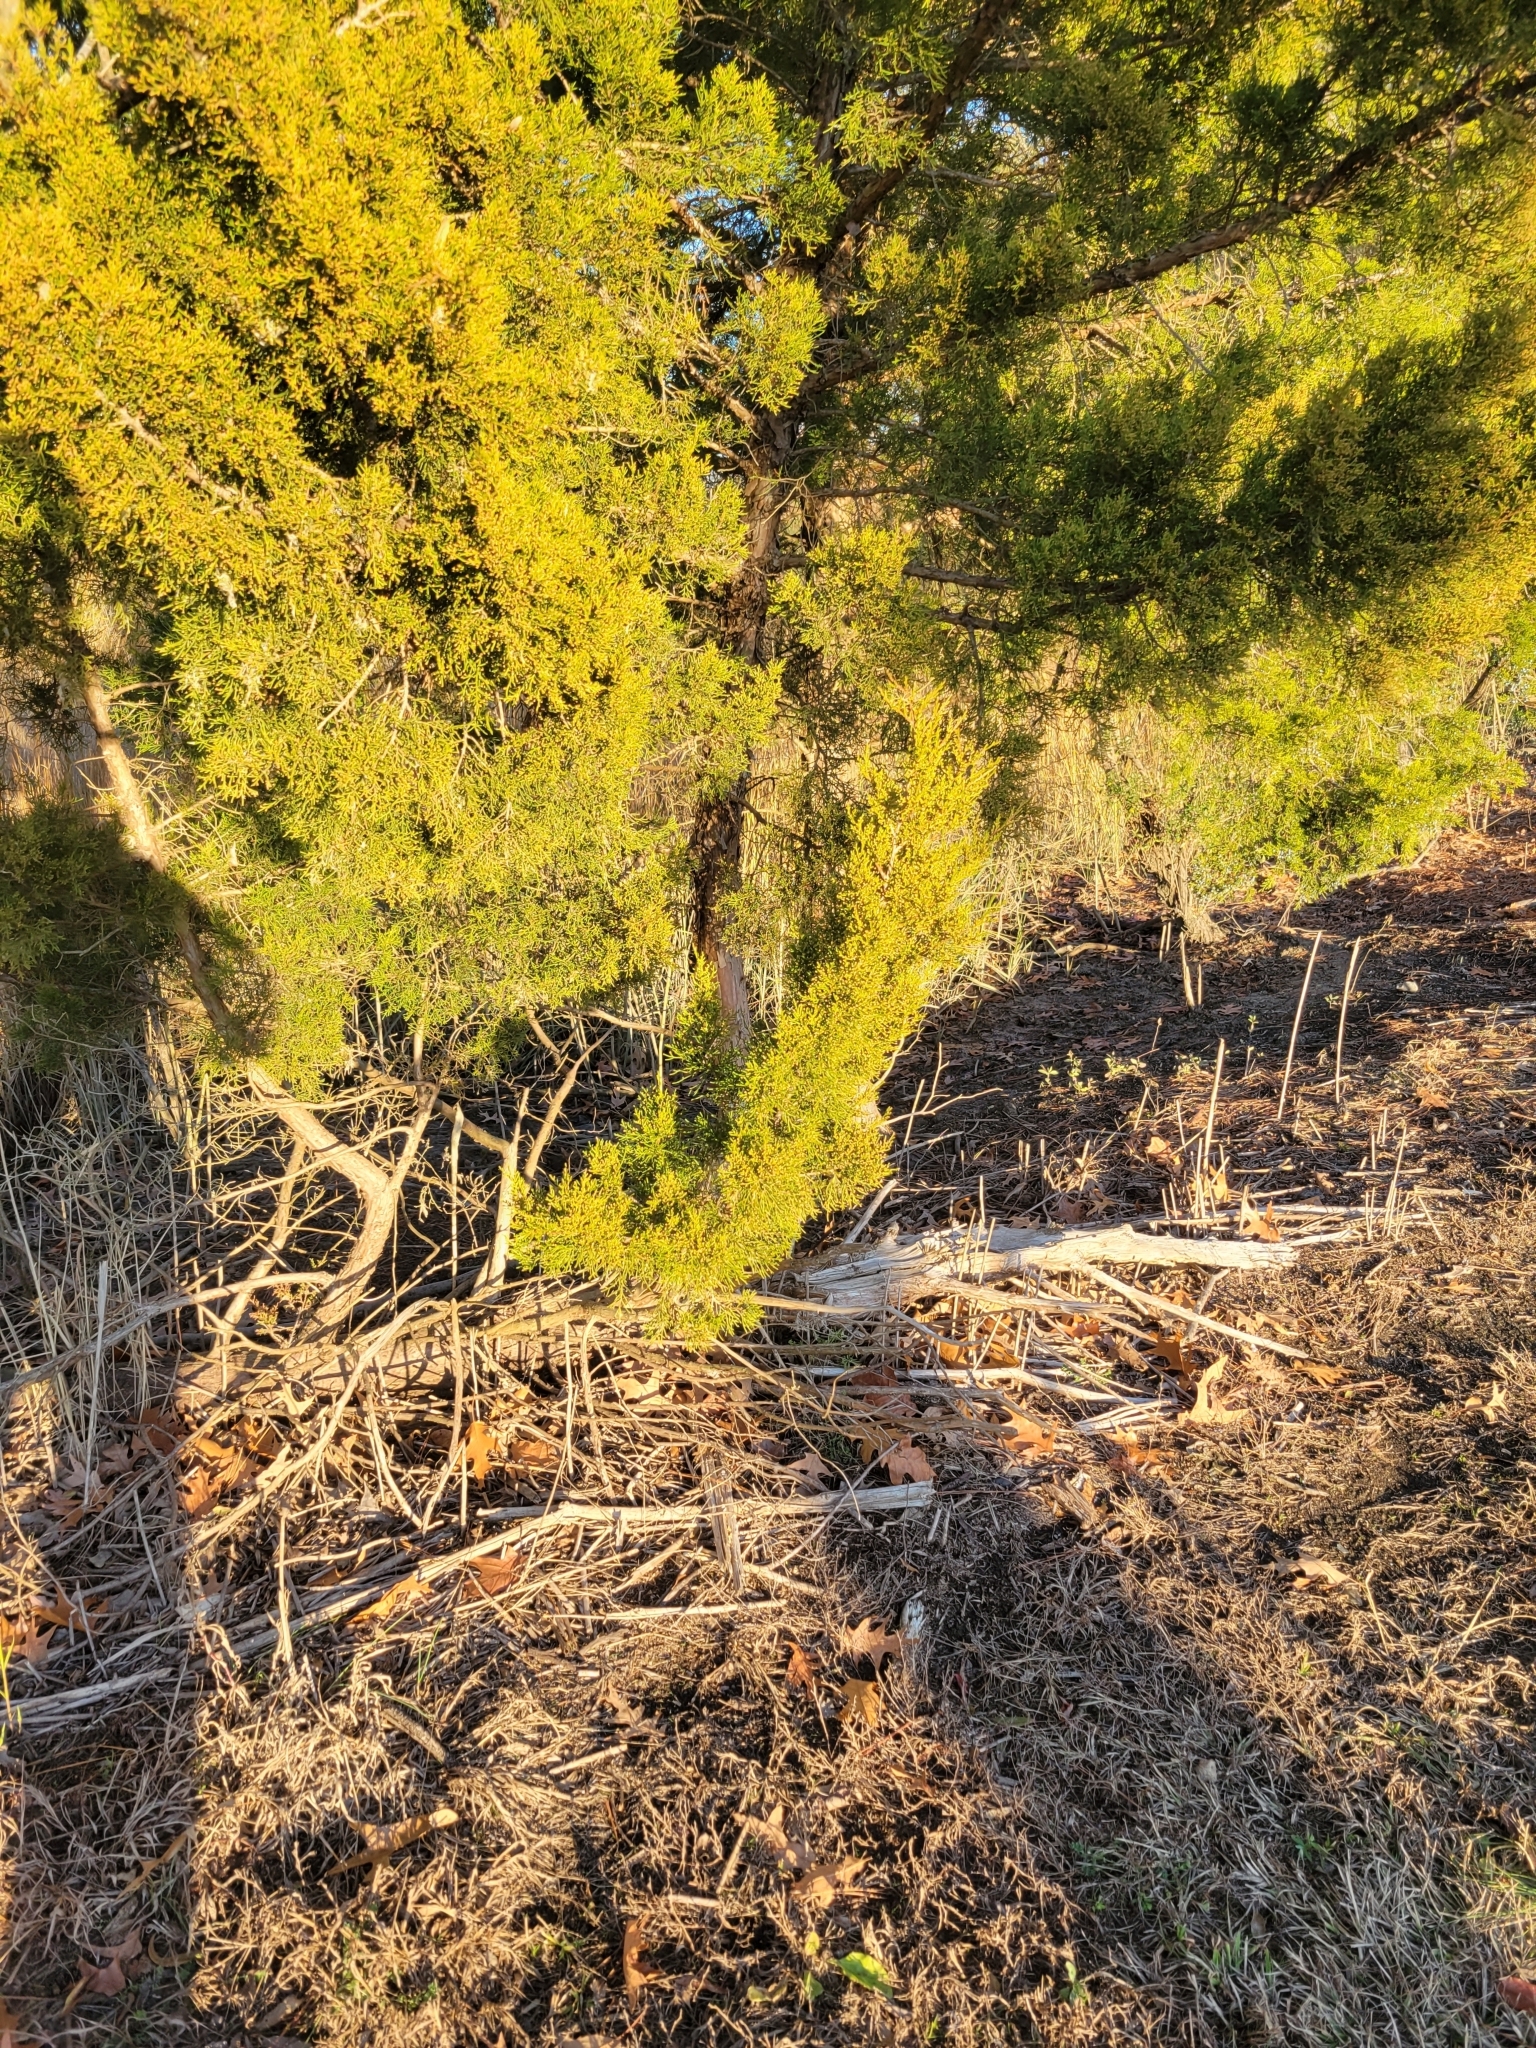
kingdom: Plantae
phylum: Tracheophyta
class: Pinopsida
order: Pinales
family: Cupressaceae
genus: Juniperus
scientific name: Juniperus virginiana
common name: Red juniper
